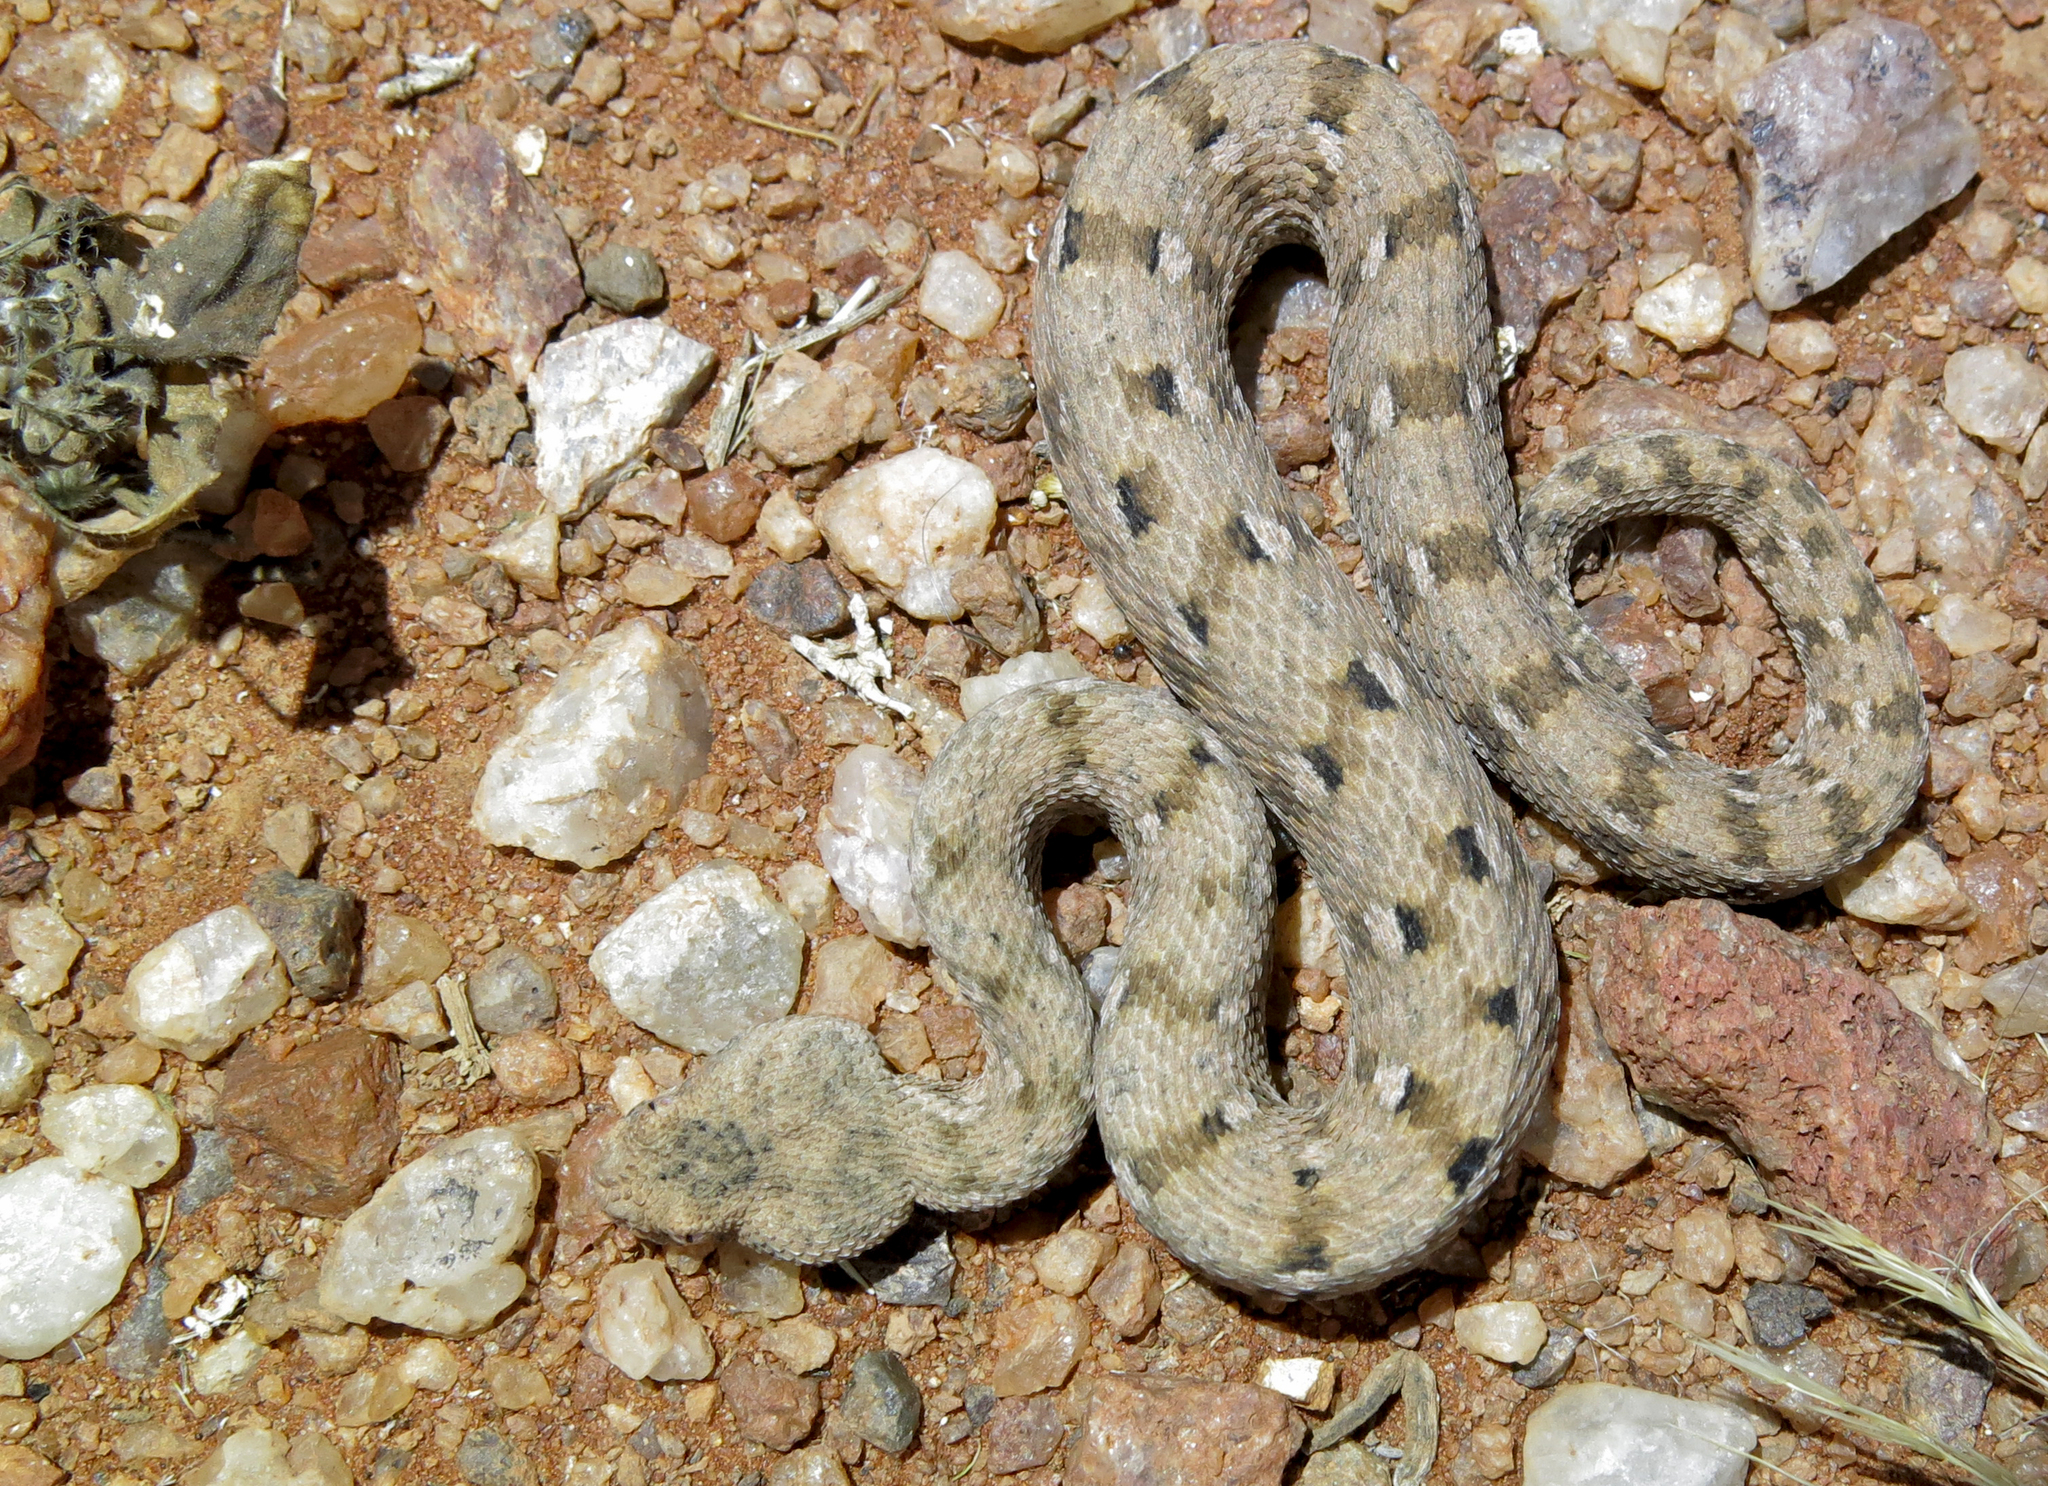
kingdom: Animalia
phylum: Chordata
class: Squamata
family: Viperidae
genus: Bitis
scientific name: Bitis xeropaga
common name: Desert mountain adder
